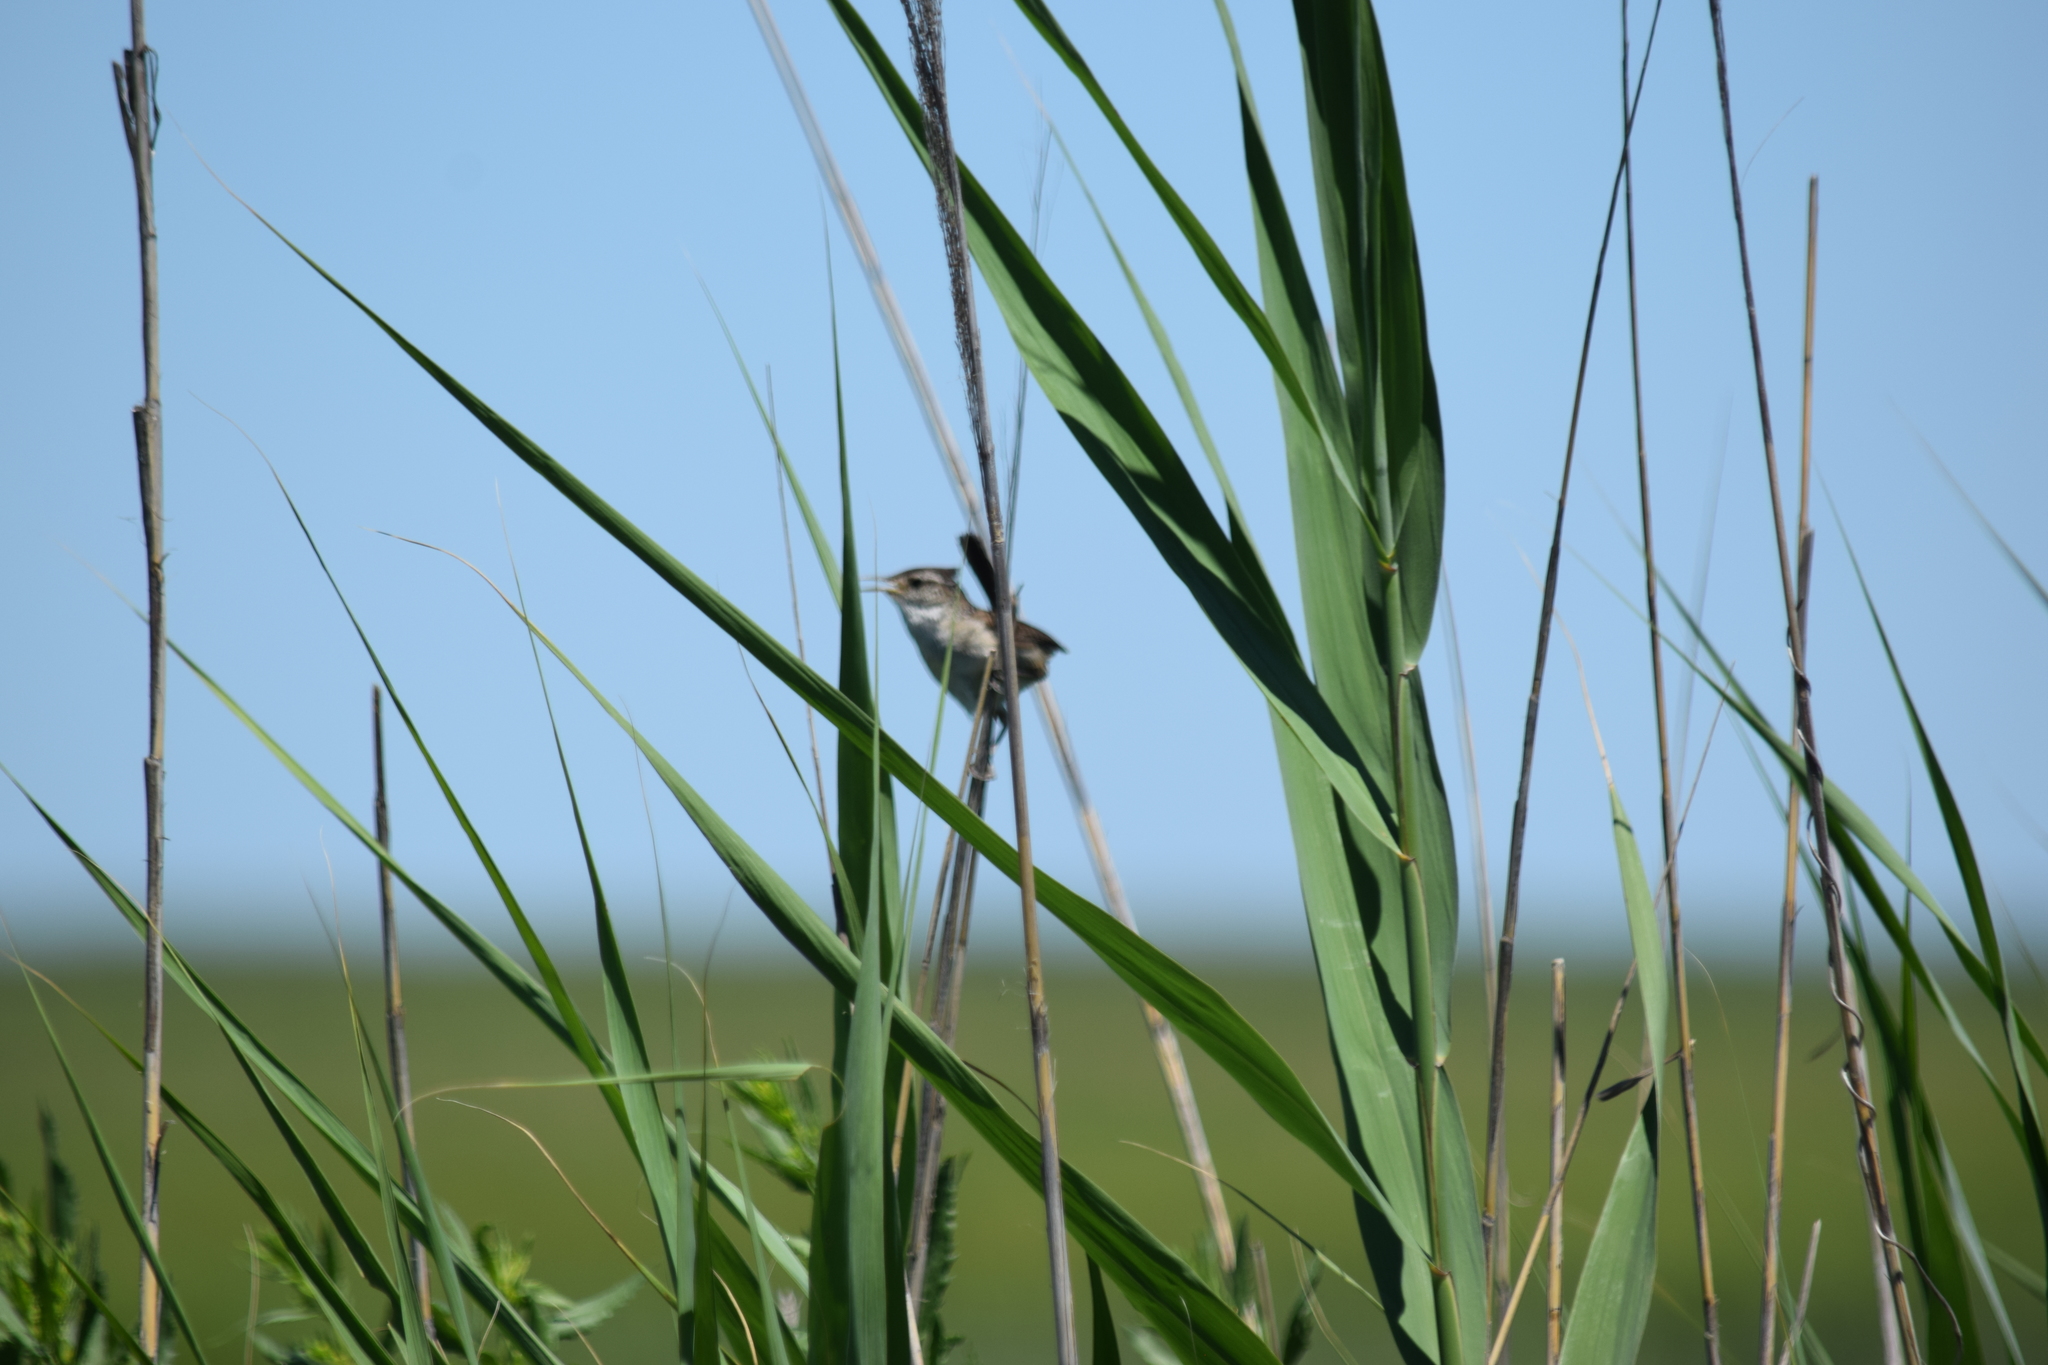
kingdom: Animalia
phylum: Chordata
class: Aves
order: Passeriformes
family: Troglodytidae
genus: Cistothorus
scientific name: Cistothorus palustris
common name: Marsh wren
